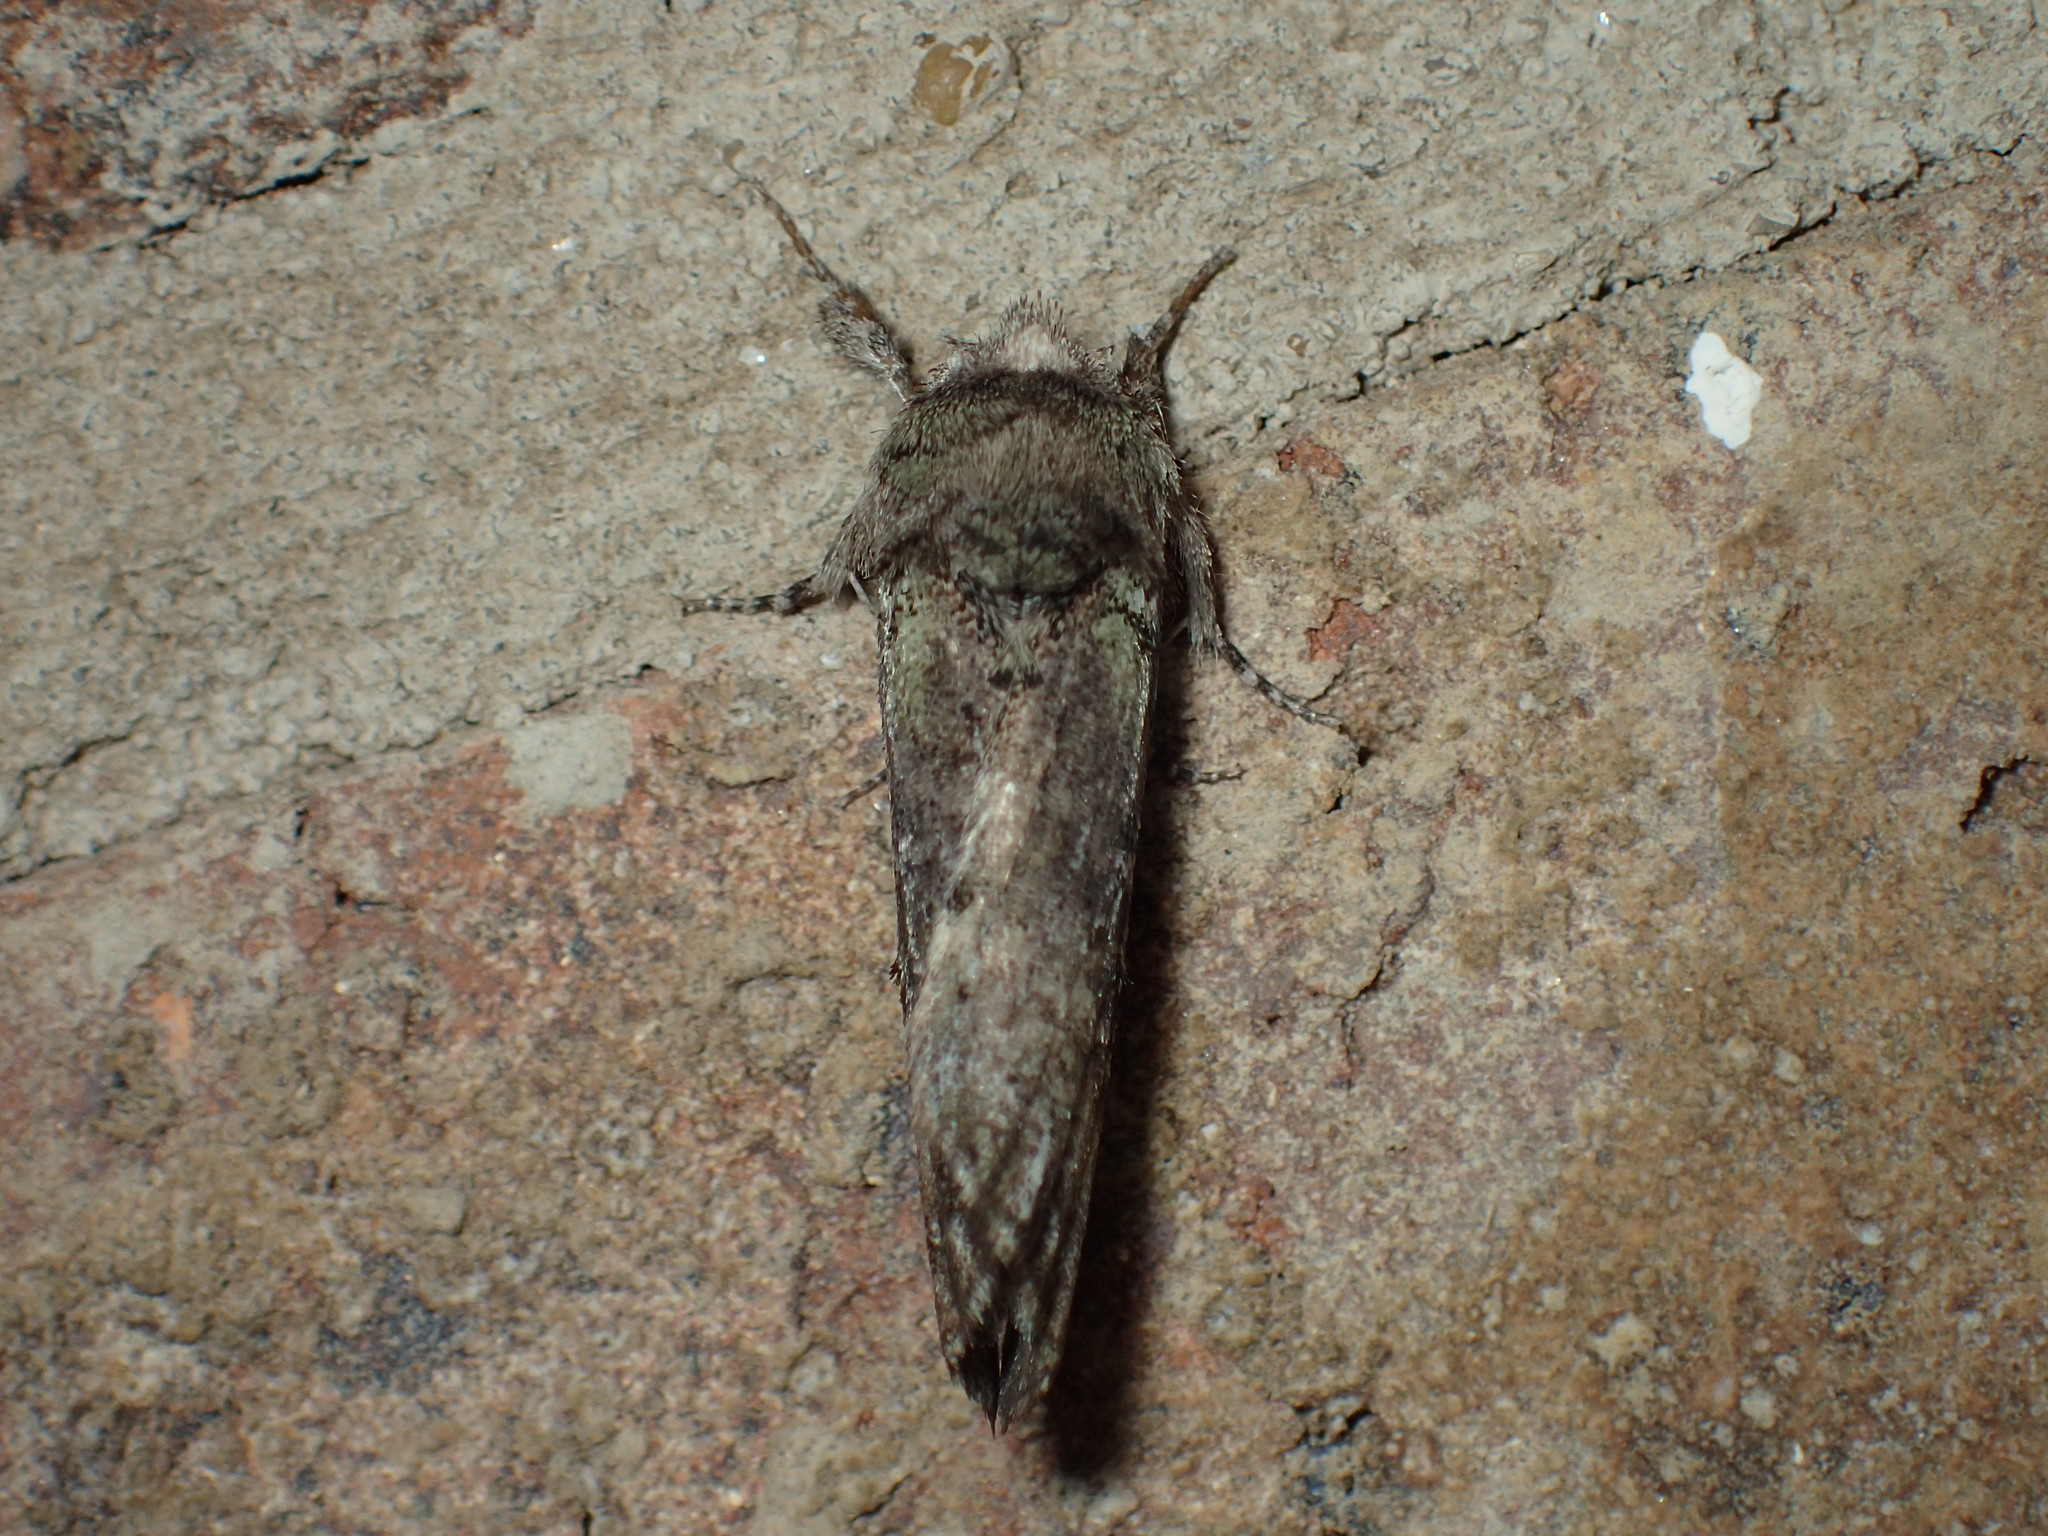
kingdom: Animalia
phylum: Arthropoda
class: Insecta
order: Lepidoptera
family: Notodontidae
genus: Schizura
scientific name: Schizura
